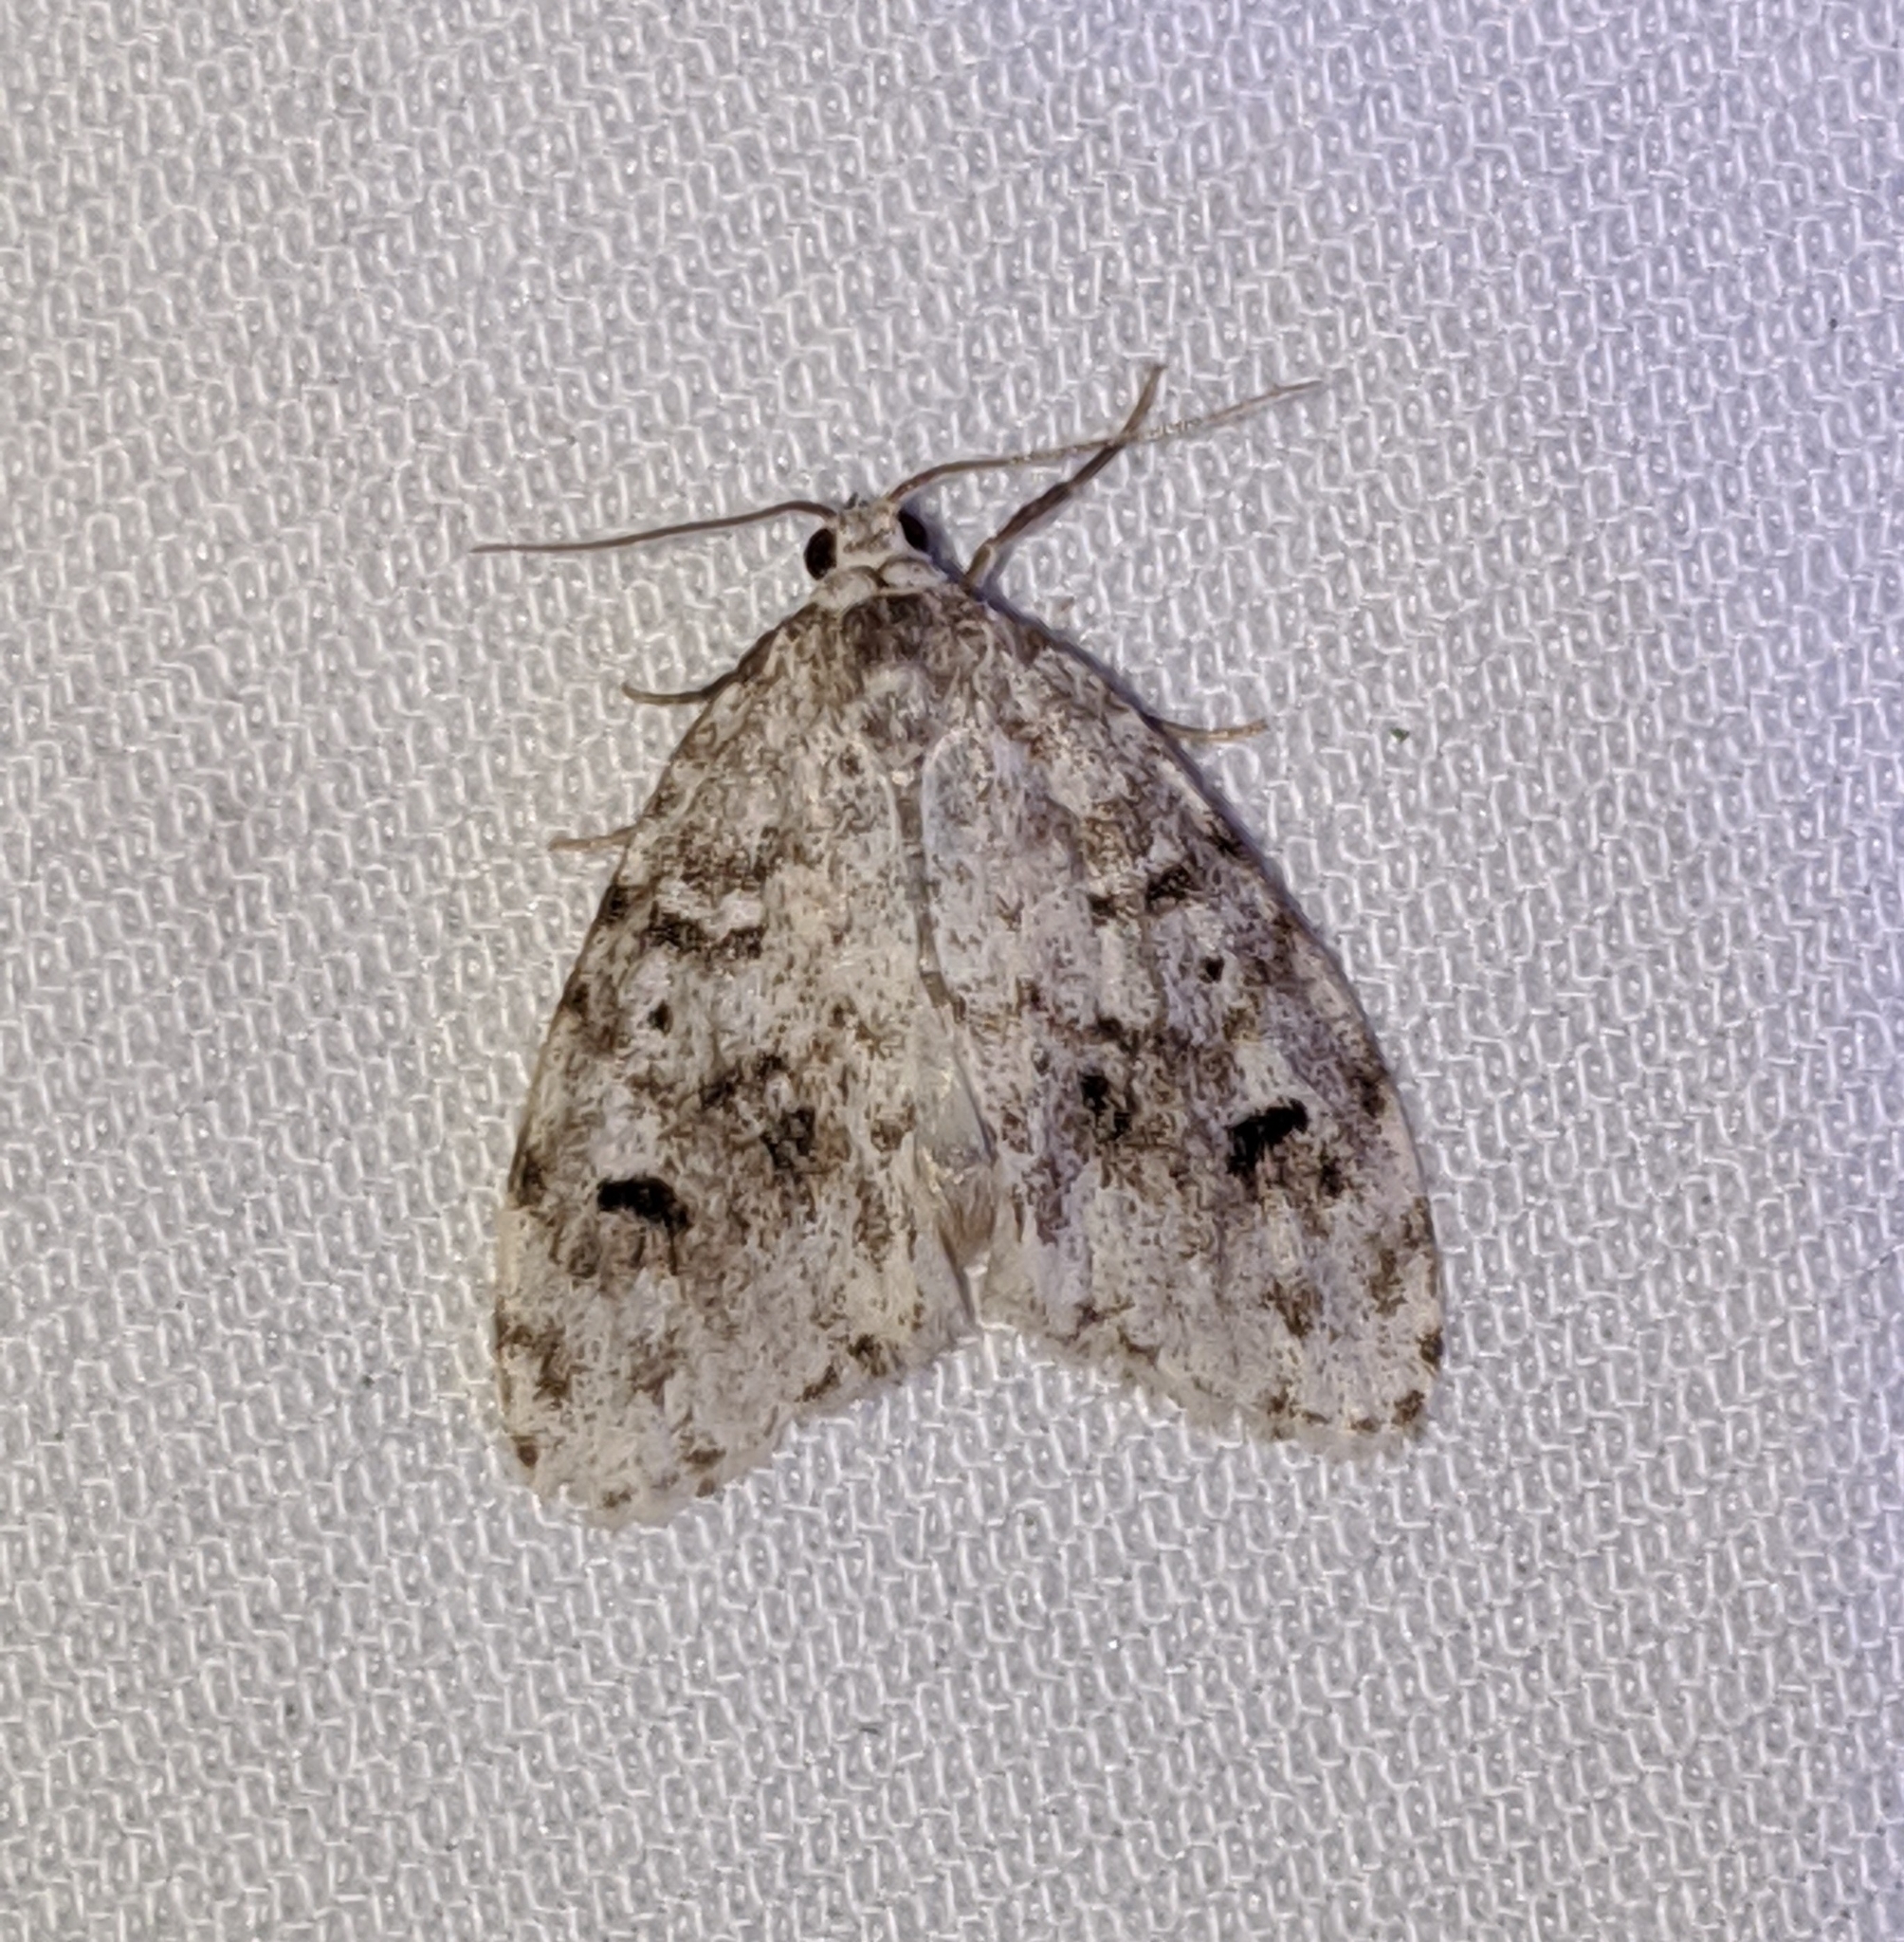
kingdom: Animalia
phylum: Arthropoda
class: Insecta
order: Lepidoptera
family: Erebidae
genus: Clemensia
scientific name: Clemensia umbrata
